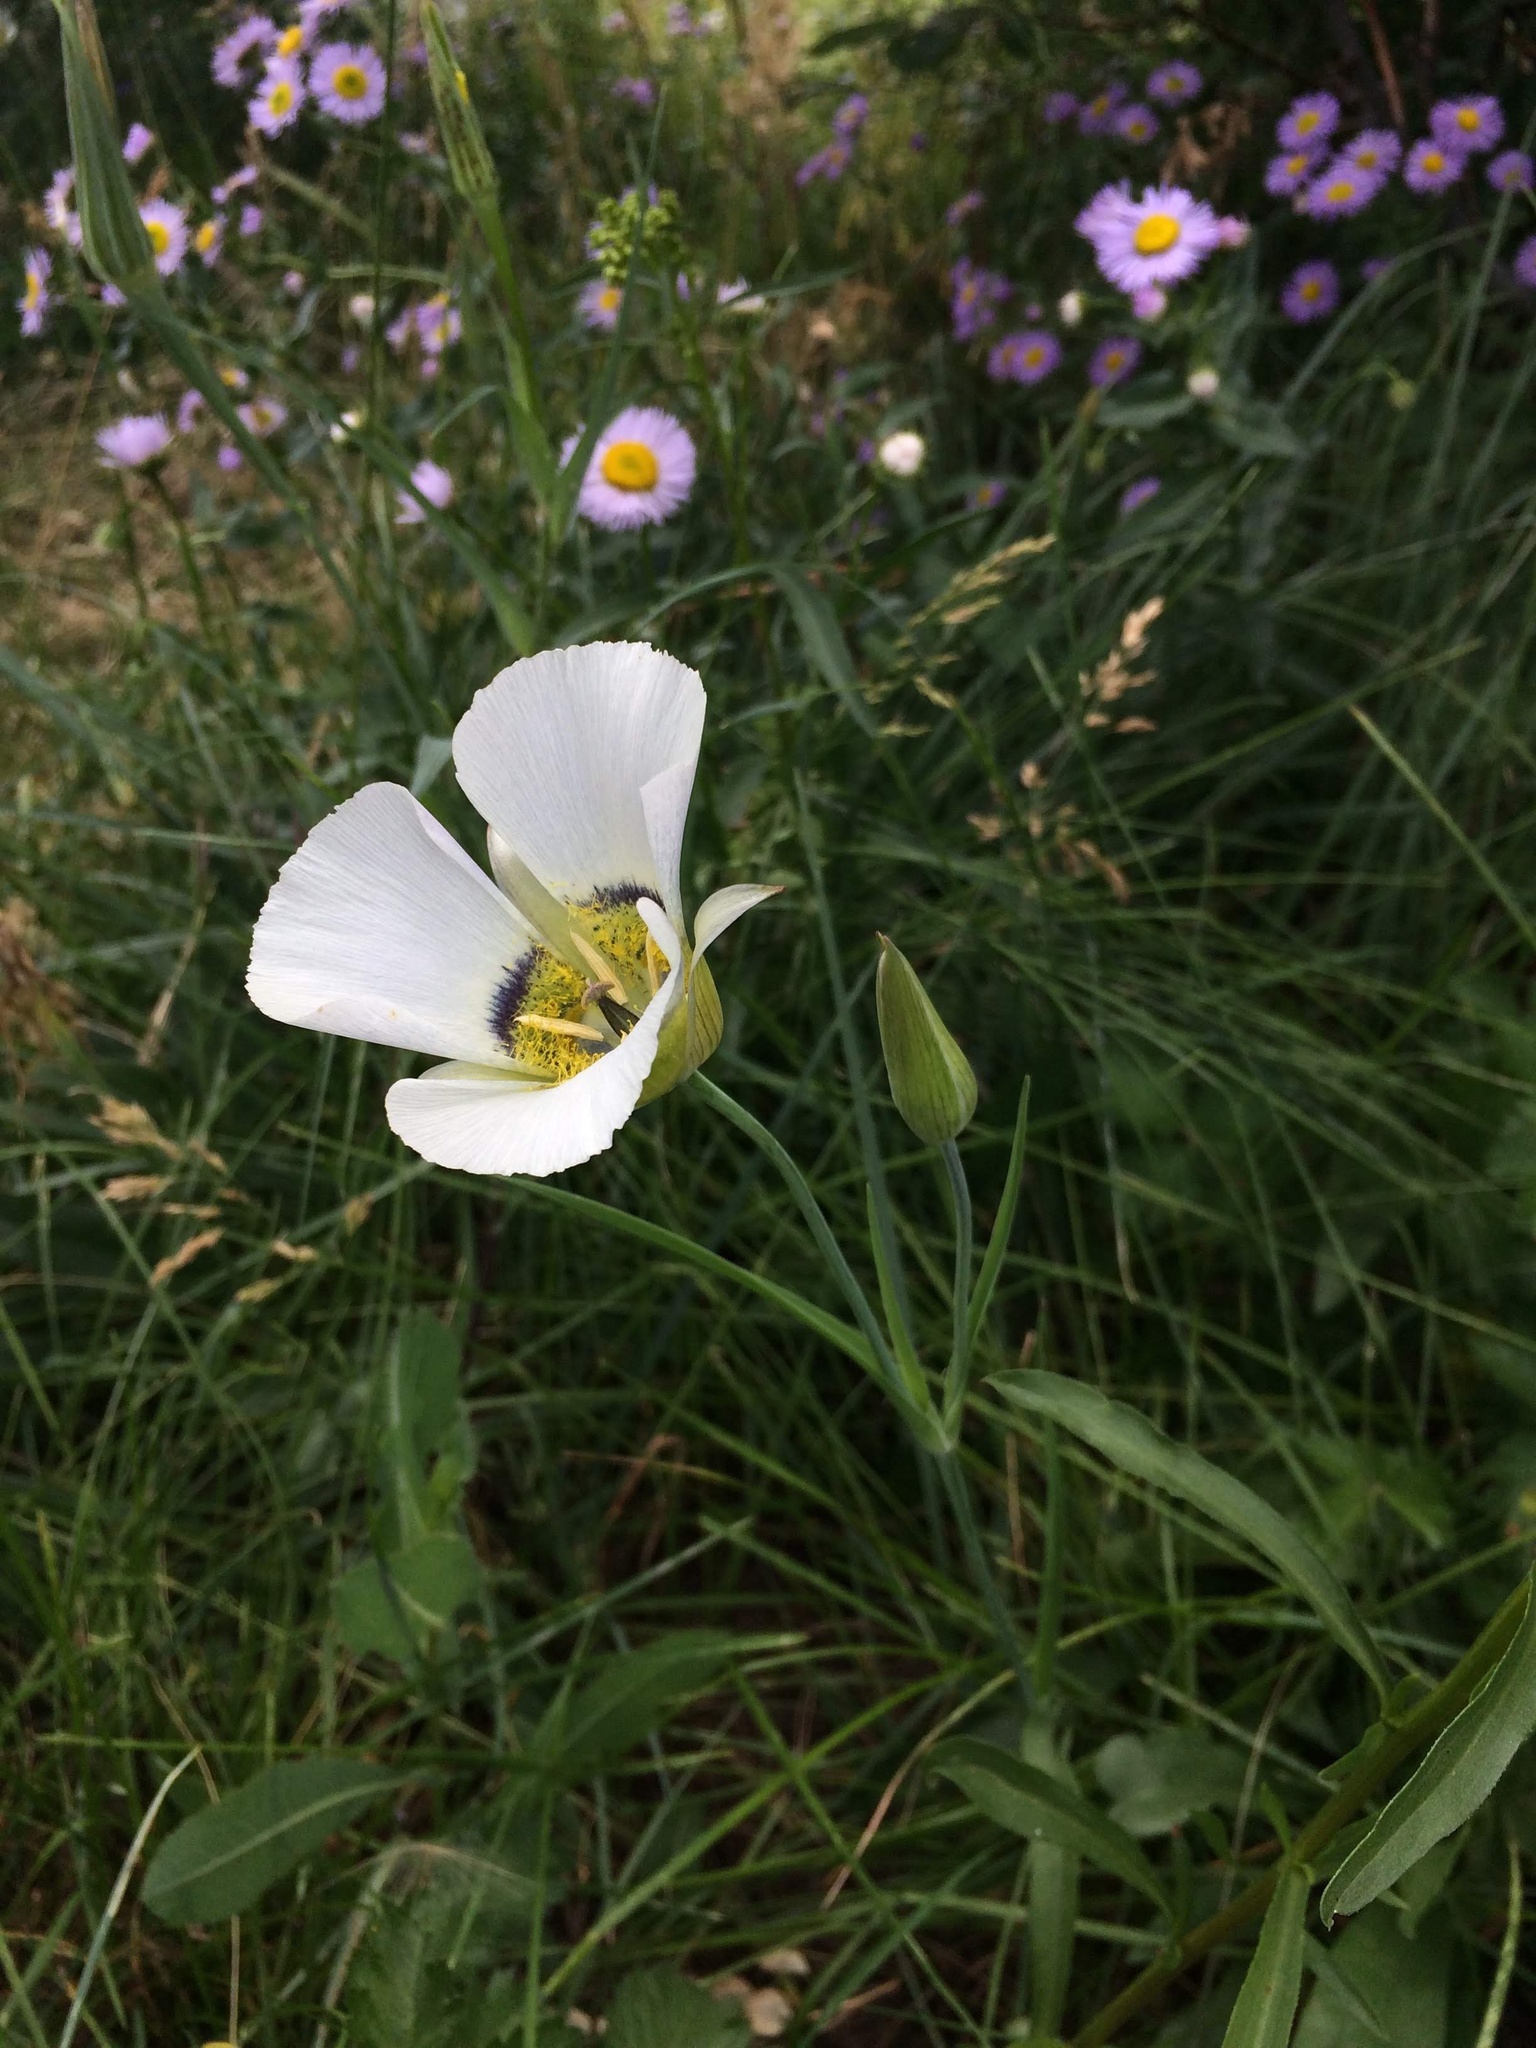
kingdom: Plantae
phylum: Tracheophyta
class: Liliopsida
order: Liliales
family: Liliaceae
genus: Calochortus
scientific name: Calochortus gunnisonii
